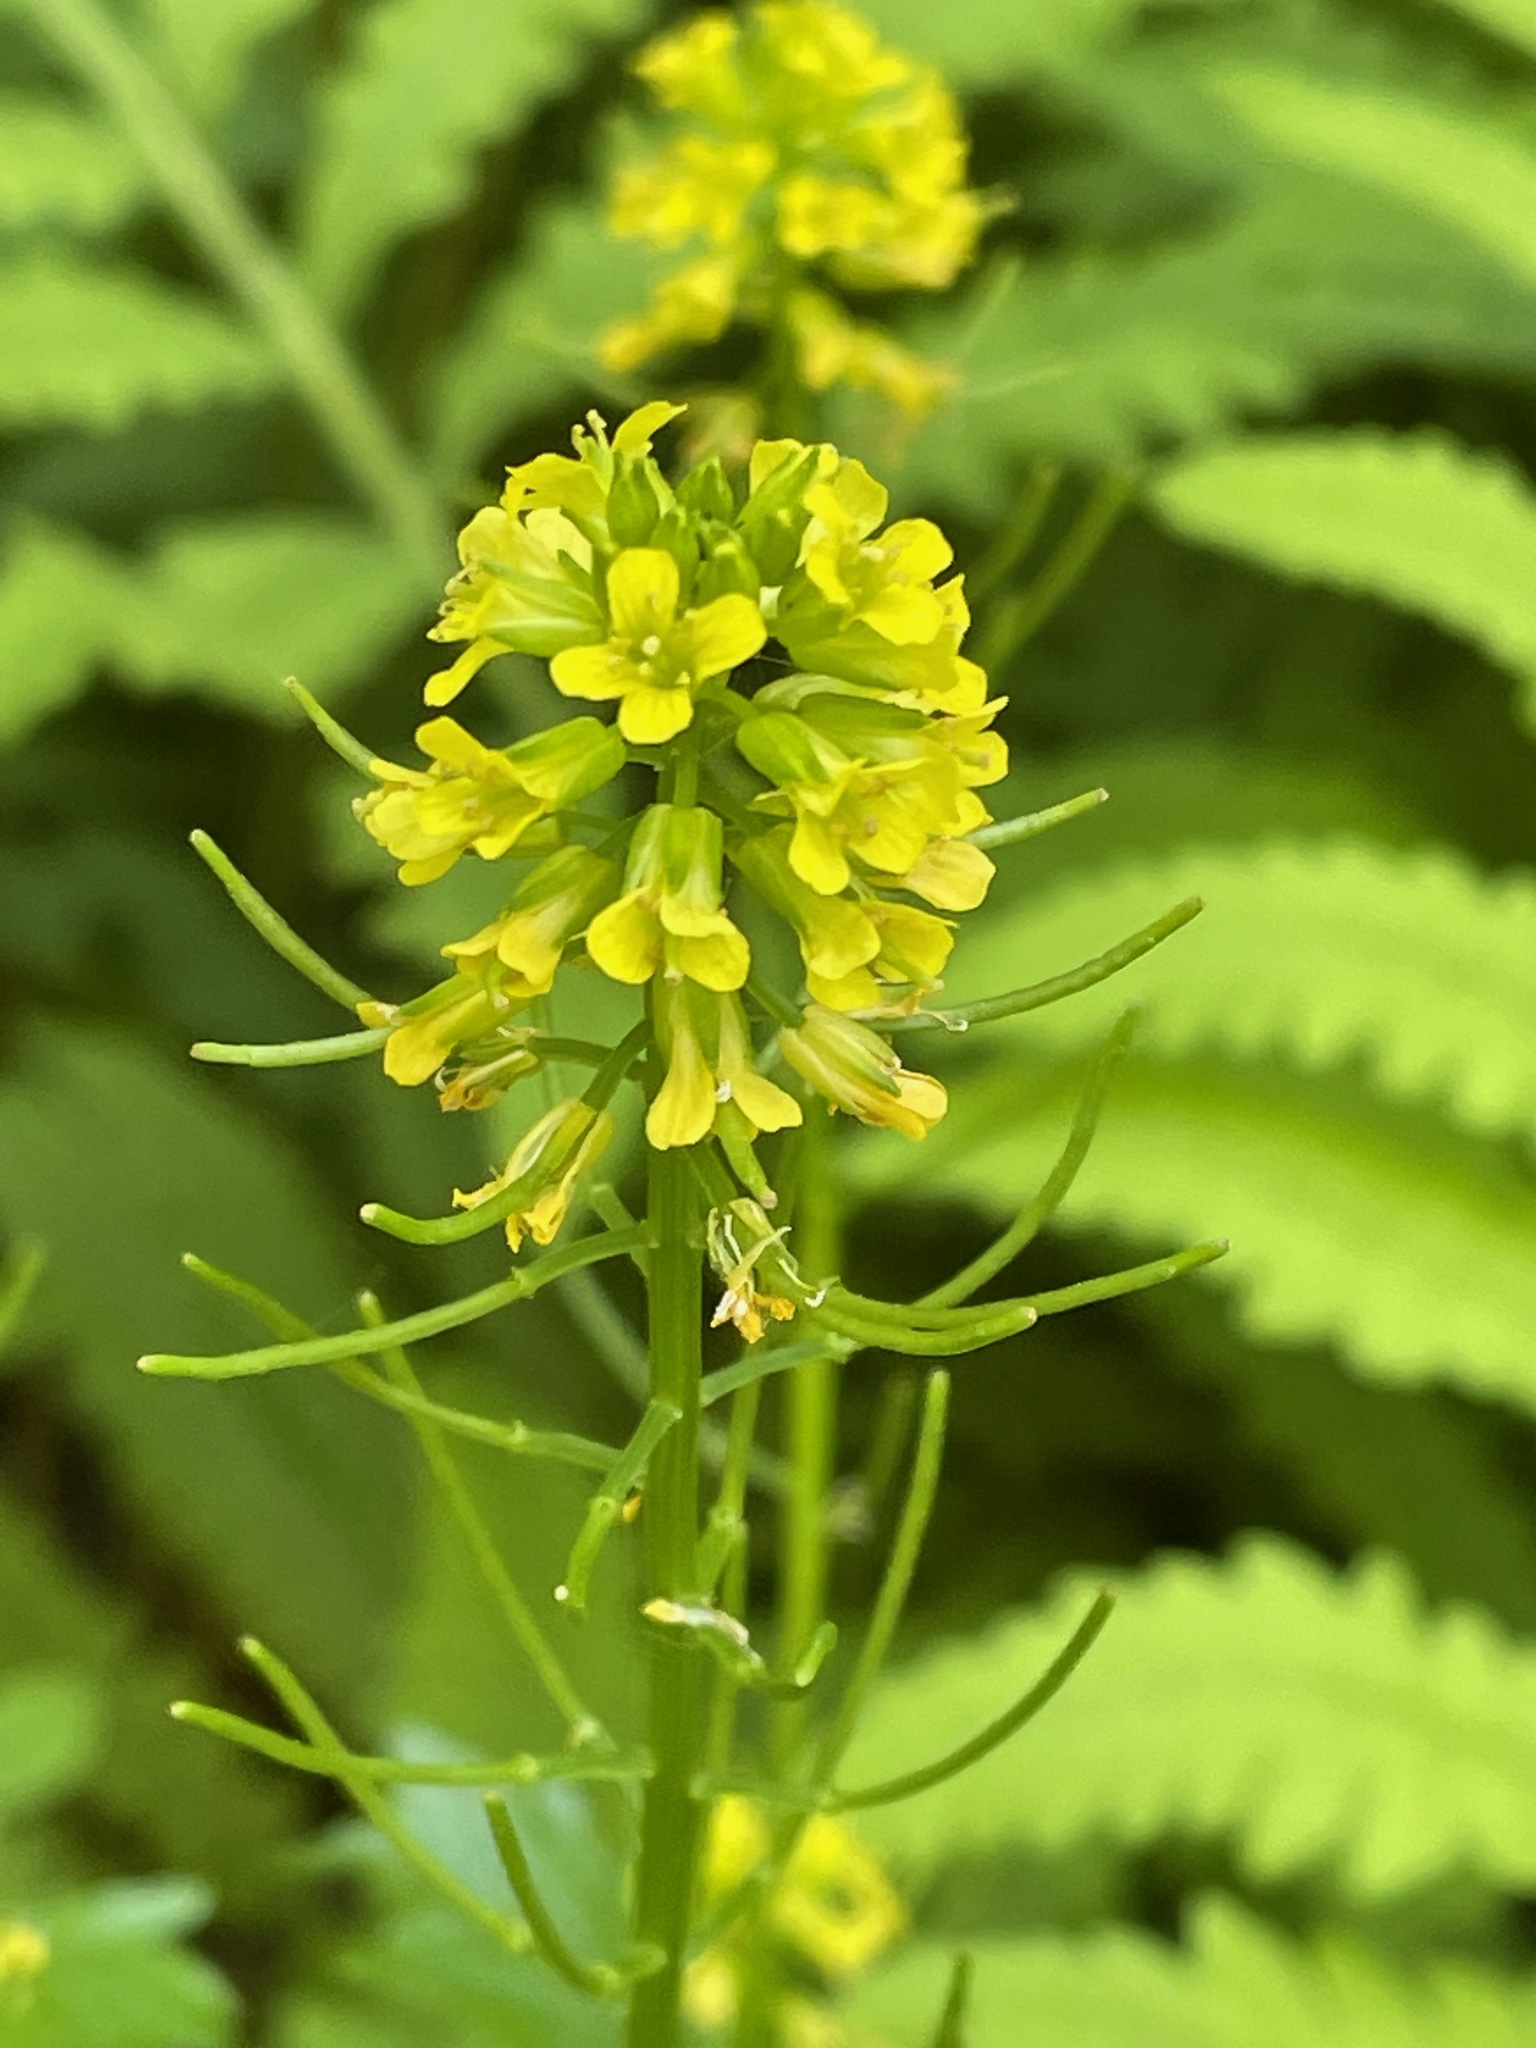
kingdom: Plantae
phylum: Tracheophyta
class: Magnoliopsida
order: Brassicales
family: Brassicaceae
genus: Barbarea
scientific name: Barbarea vulgaris
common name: Cressy-greens
